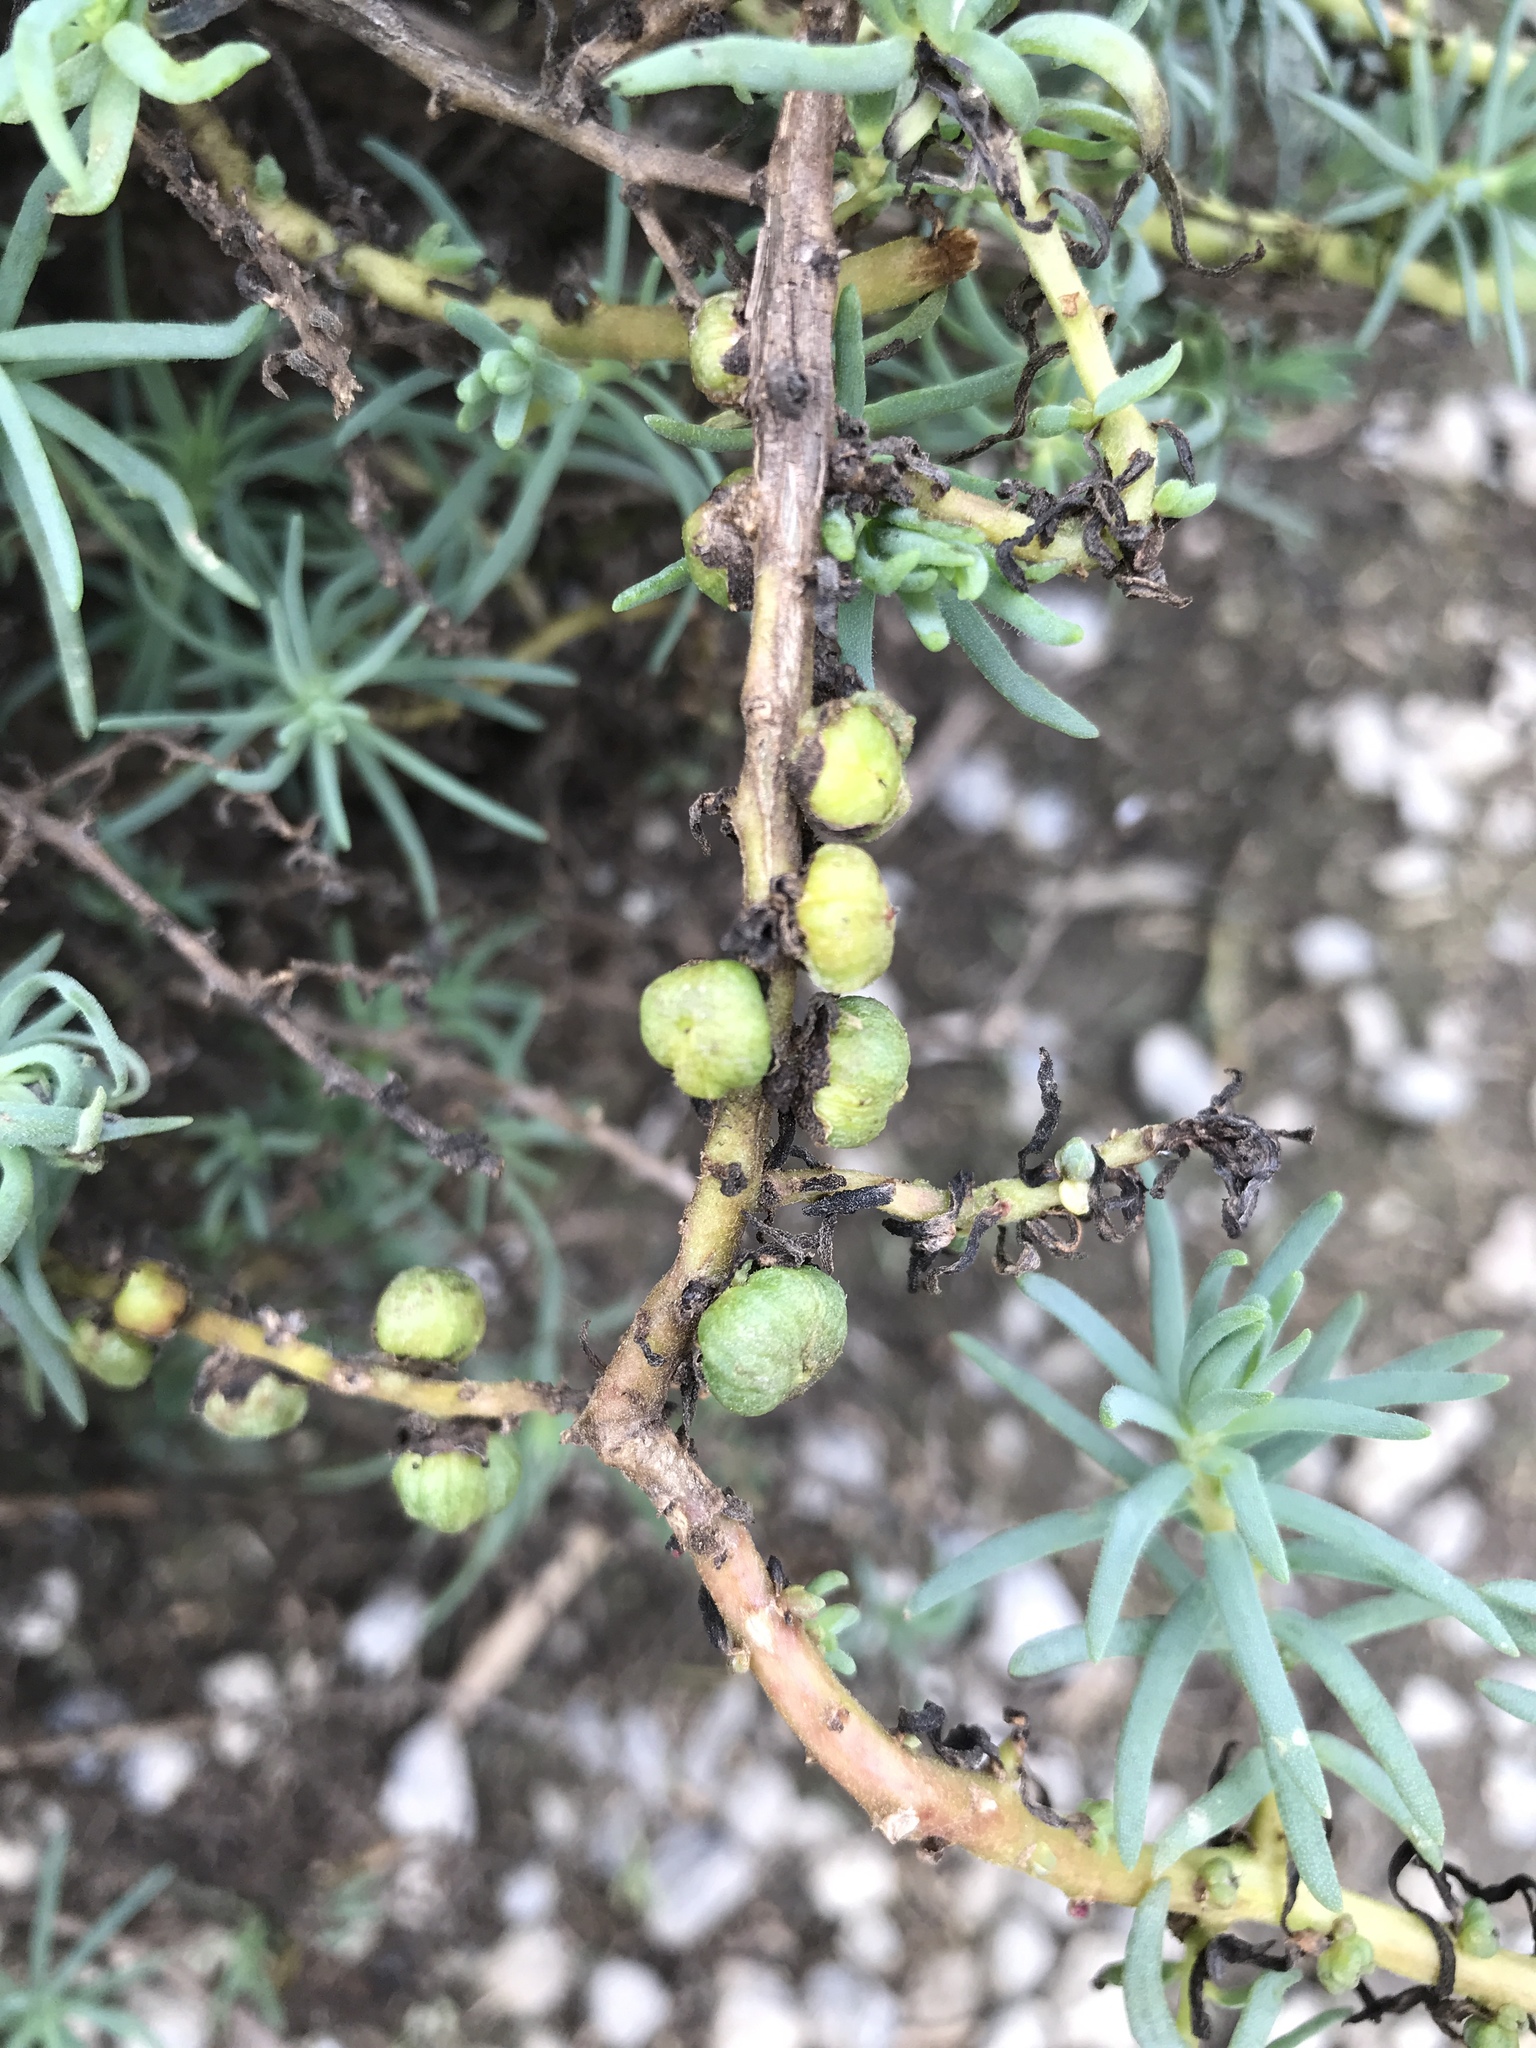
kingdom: Plantae
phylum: Tracheophyta
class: Magnoliopsida
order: Caryophyllales
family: Amaranthaceae
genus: Suaeda
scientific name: Suaeda taxifolia
